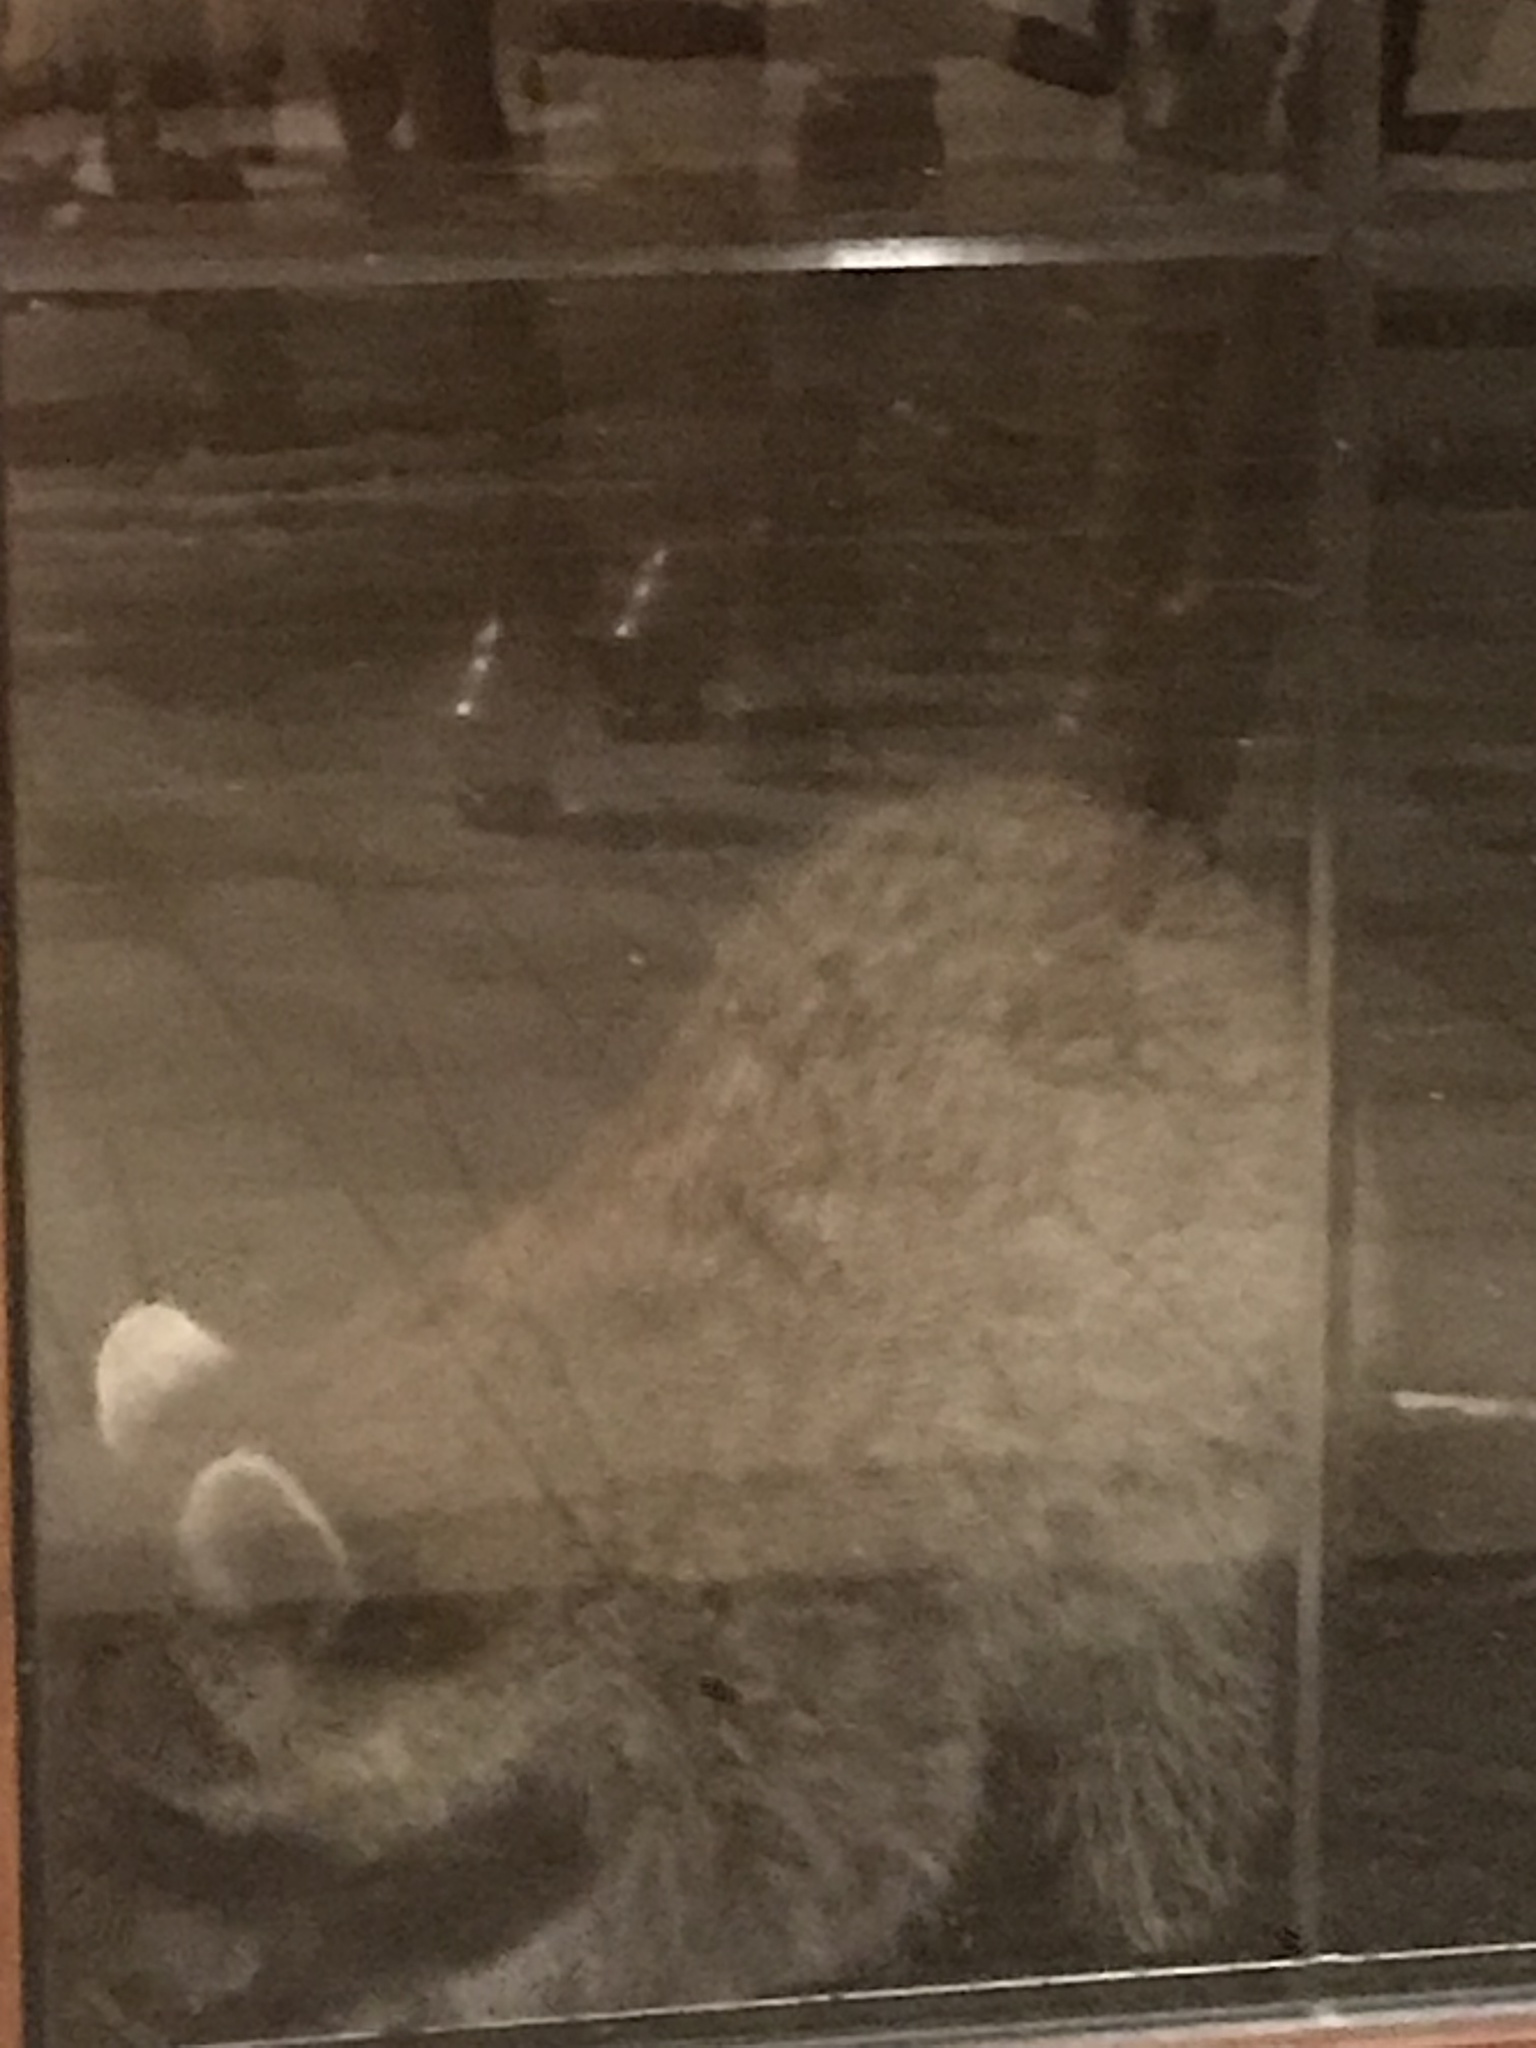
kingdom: Animalia
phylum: Chordata
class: Mammalia
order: Carnivora
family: Procyonidae
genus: Procyon
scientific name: Procyon lotor
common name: Raccoon
